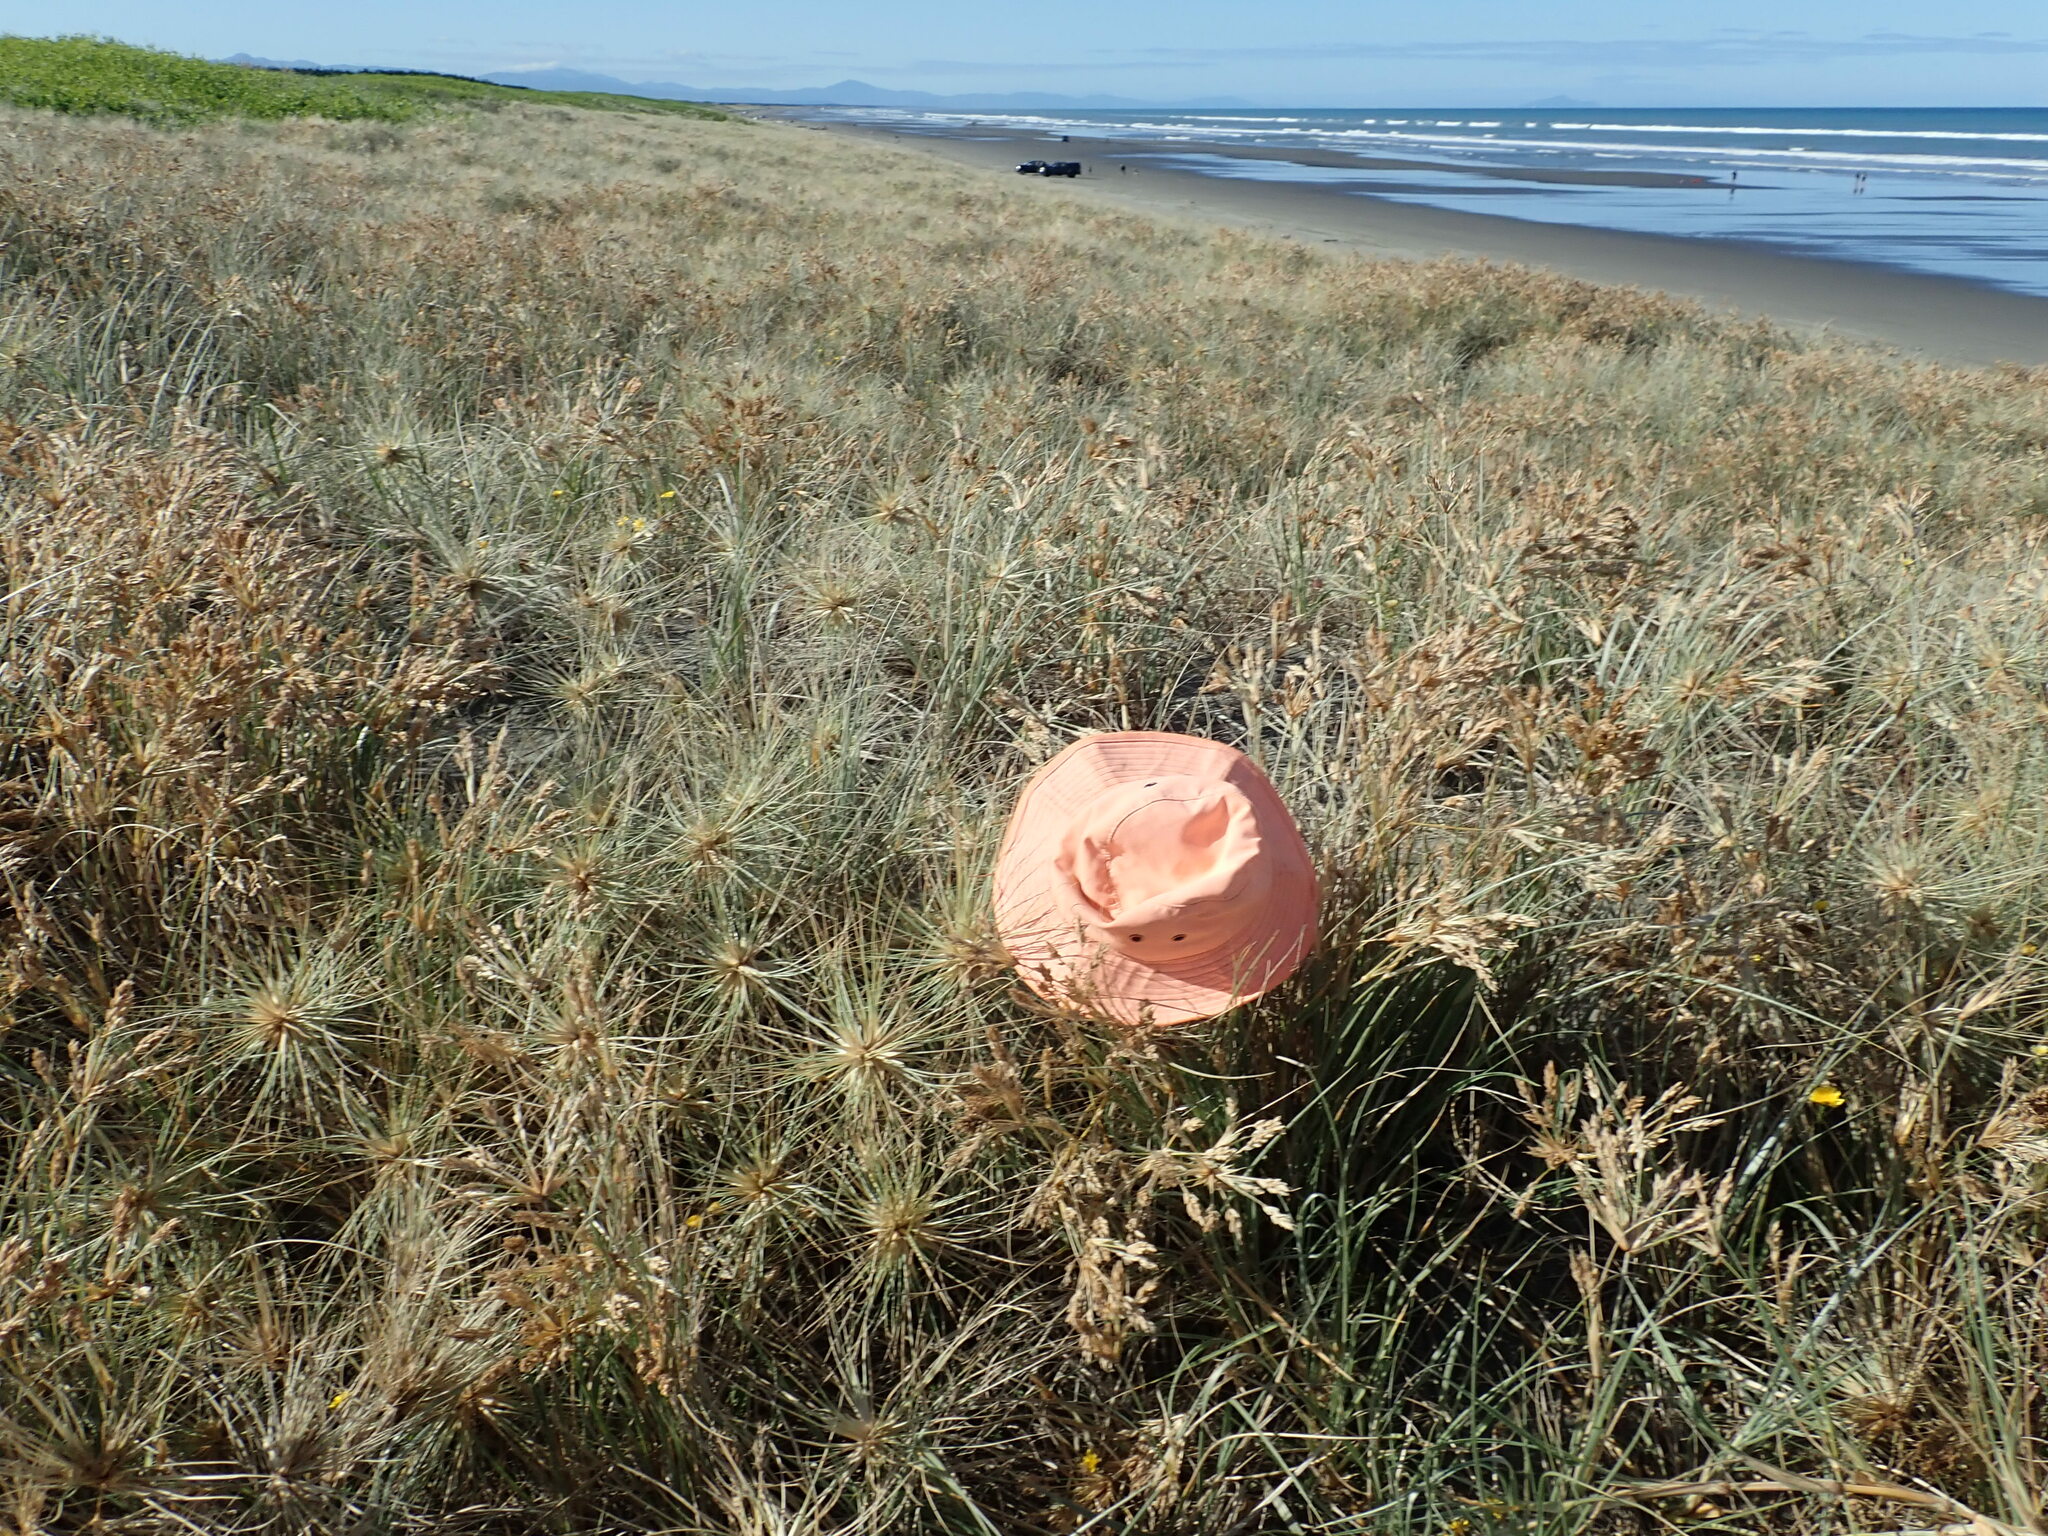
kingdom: Animalia
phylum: Arthropoda
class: Arachnida
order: Araneae
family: Theridiidae
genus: Latrodectus
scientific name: Latrodectus katipo
